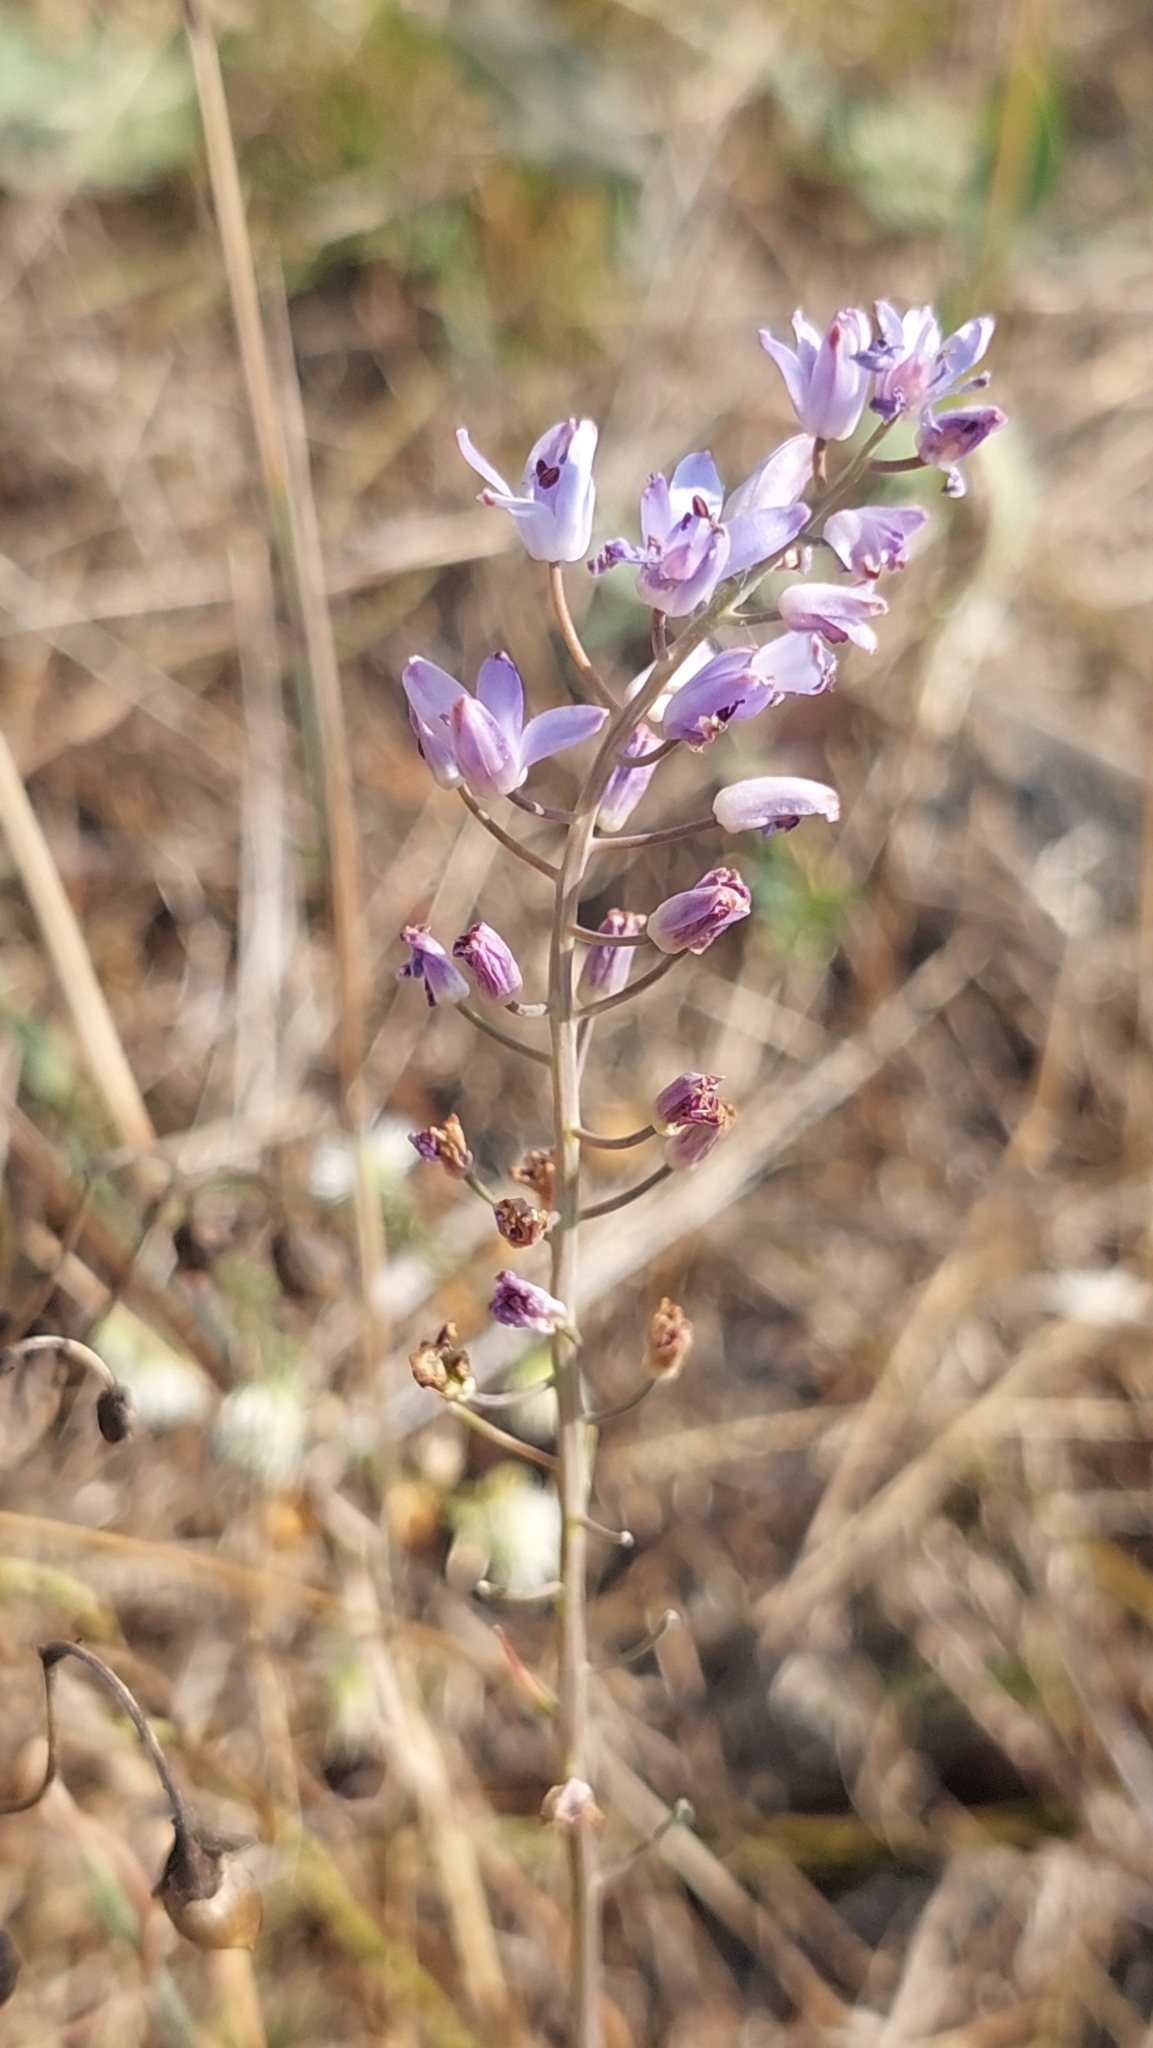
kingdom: Plantae
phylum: Tracheophyta
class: Liliopsida
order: Asparagales
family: Asparagaceae
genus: Prospero
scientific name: Prospero autumnale
